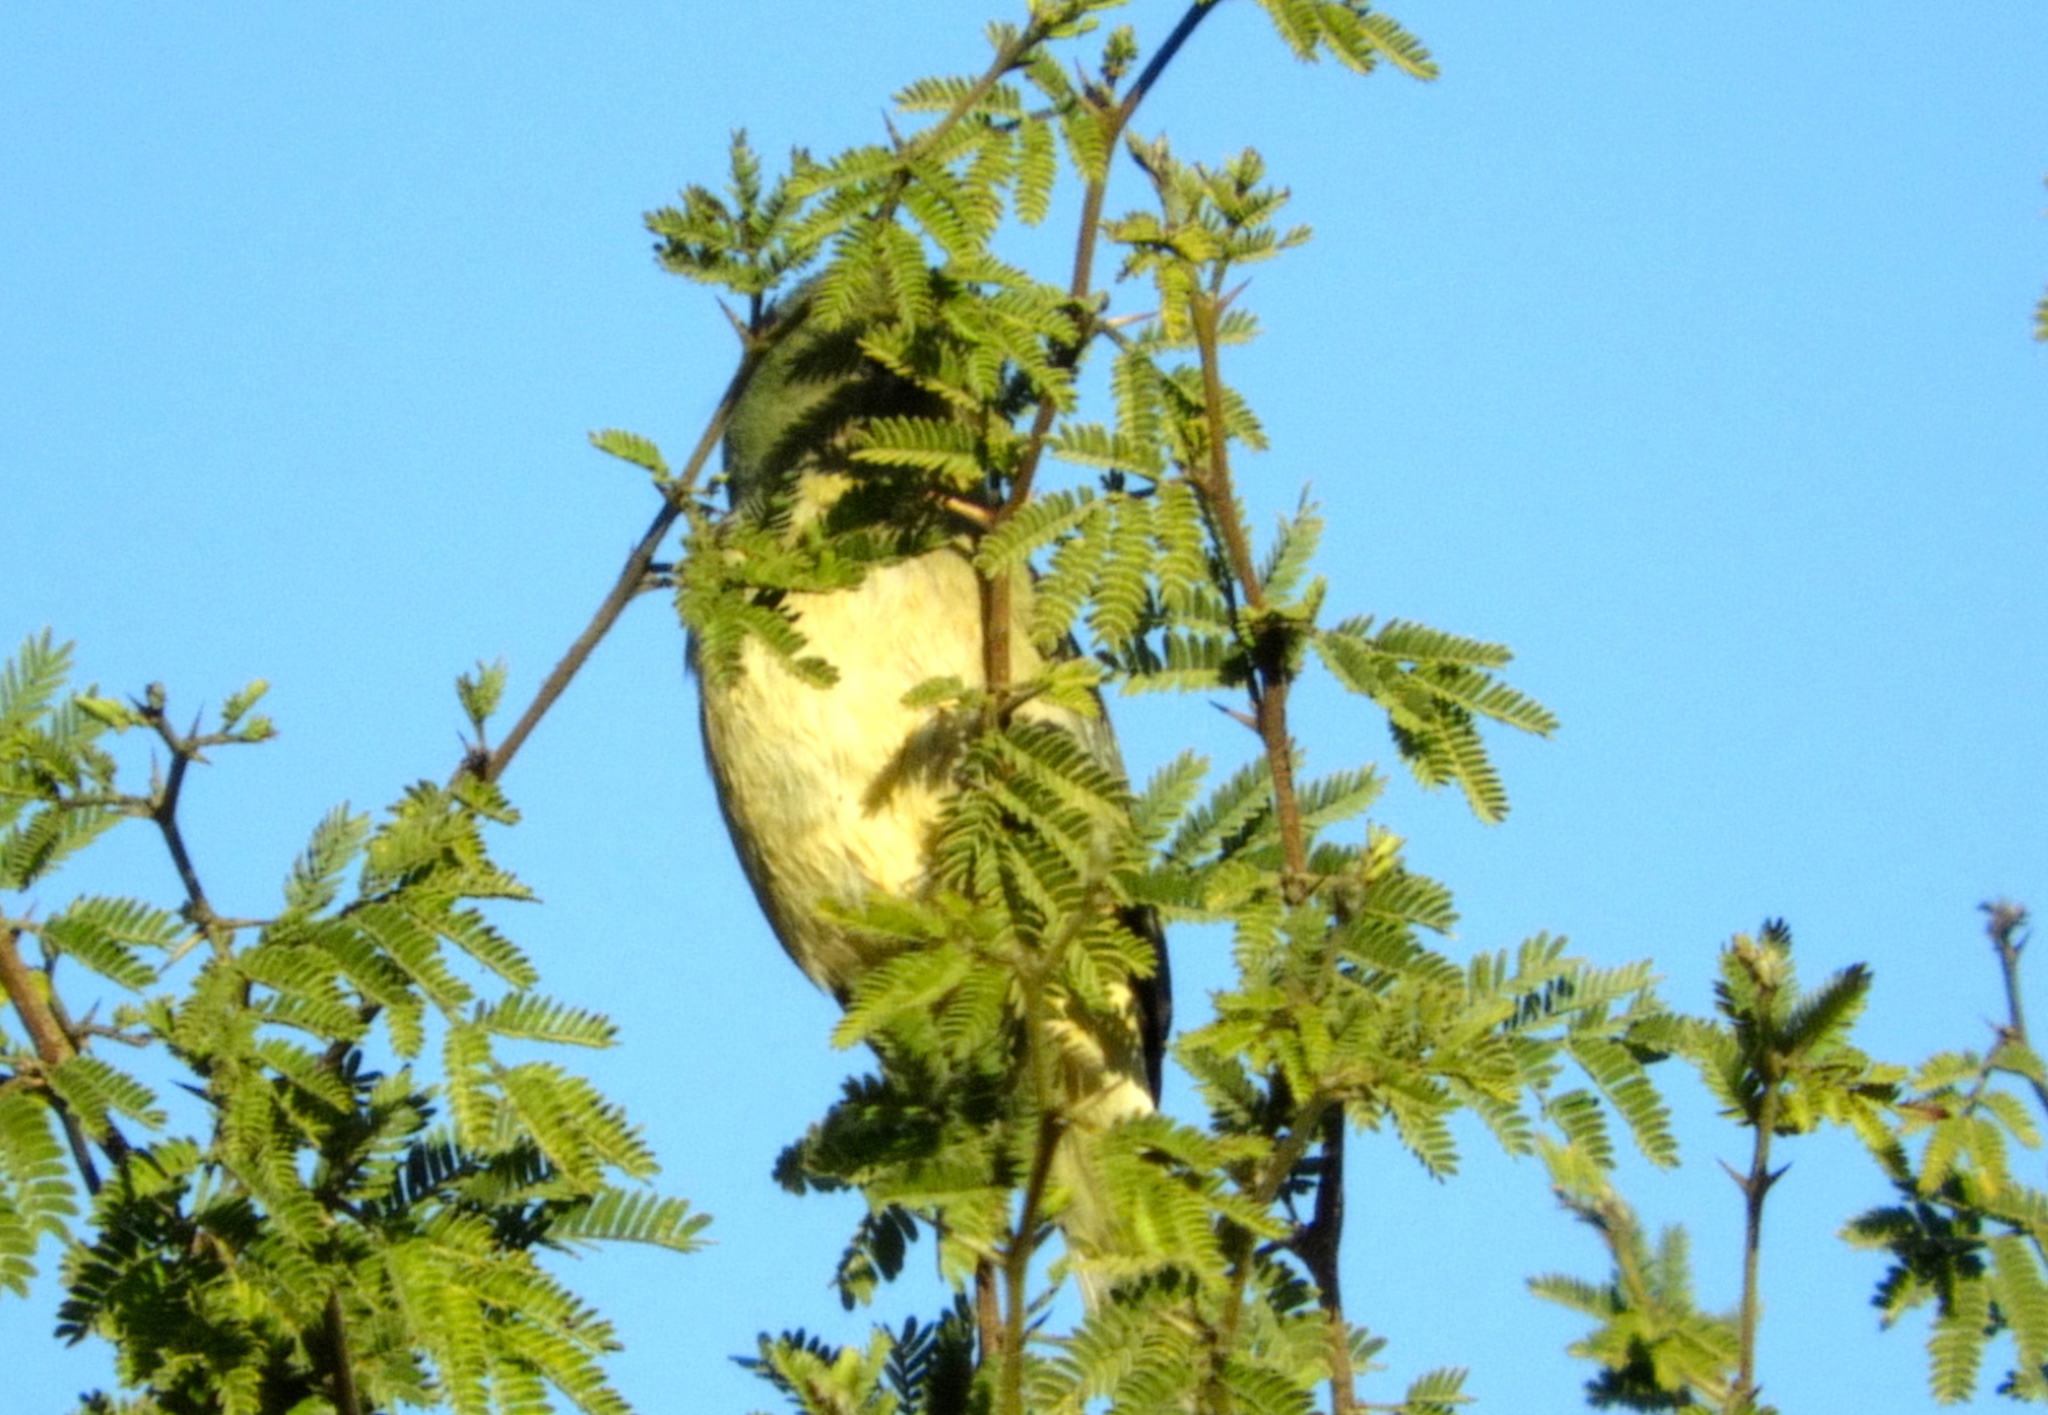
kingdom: Animalia
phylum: Chordata
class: Aves
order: Passeriformes
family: Cardinalidae
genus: Passerina
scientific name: Passerina ciris
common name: Painted bunting
